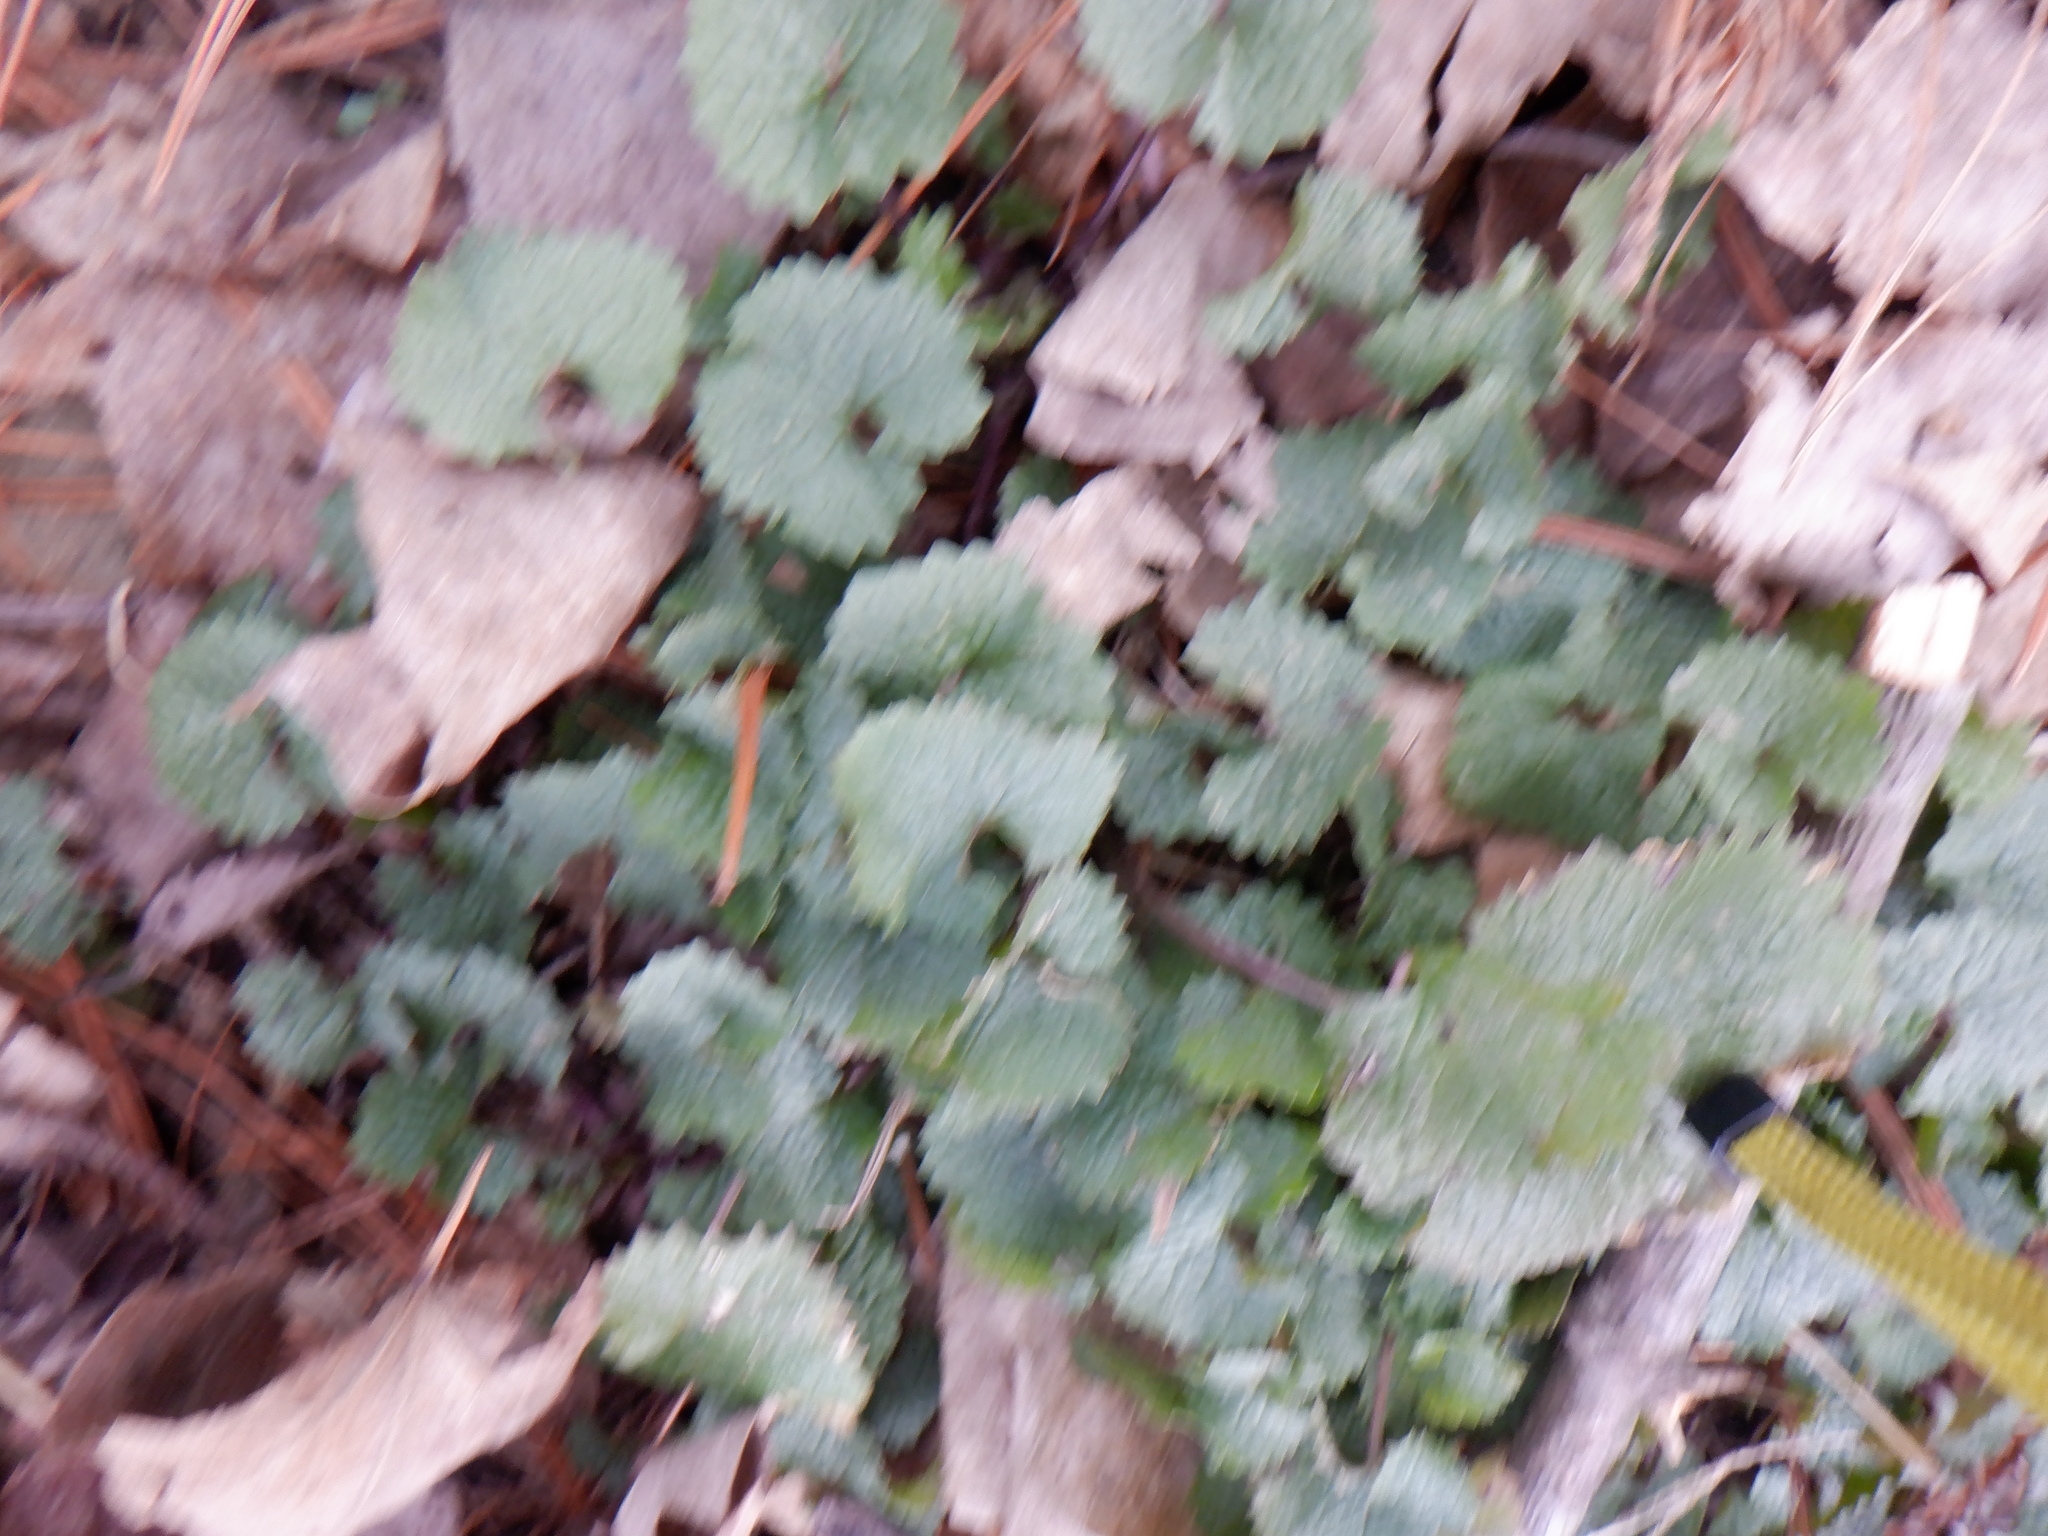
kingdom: Plantae
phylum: Tracheophyta
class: Magnoliopsida
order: Brassicales
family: Brassicaceae
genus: Alliaria
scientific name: Alliaria petiolata
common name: Garlic mustard
